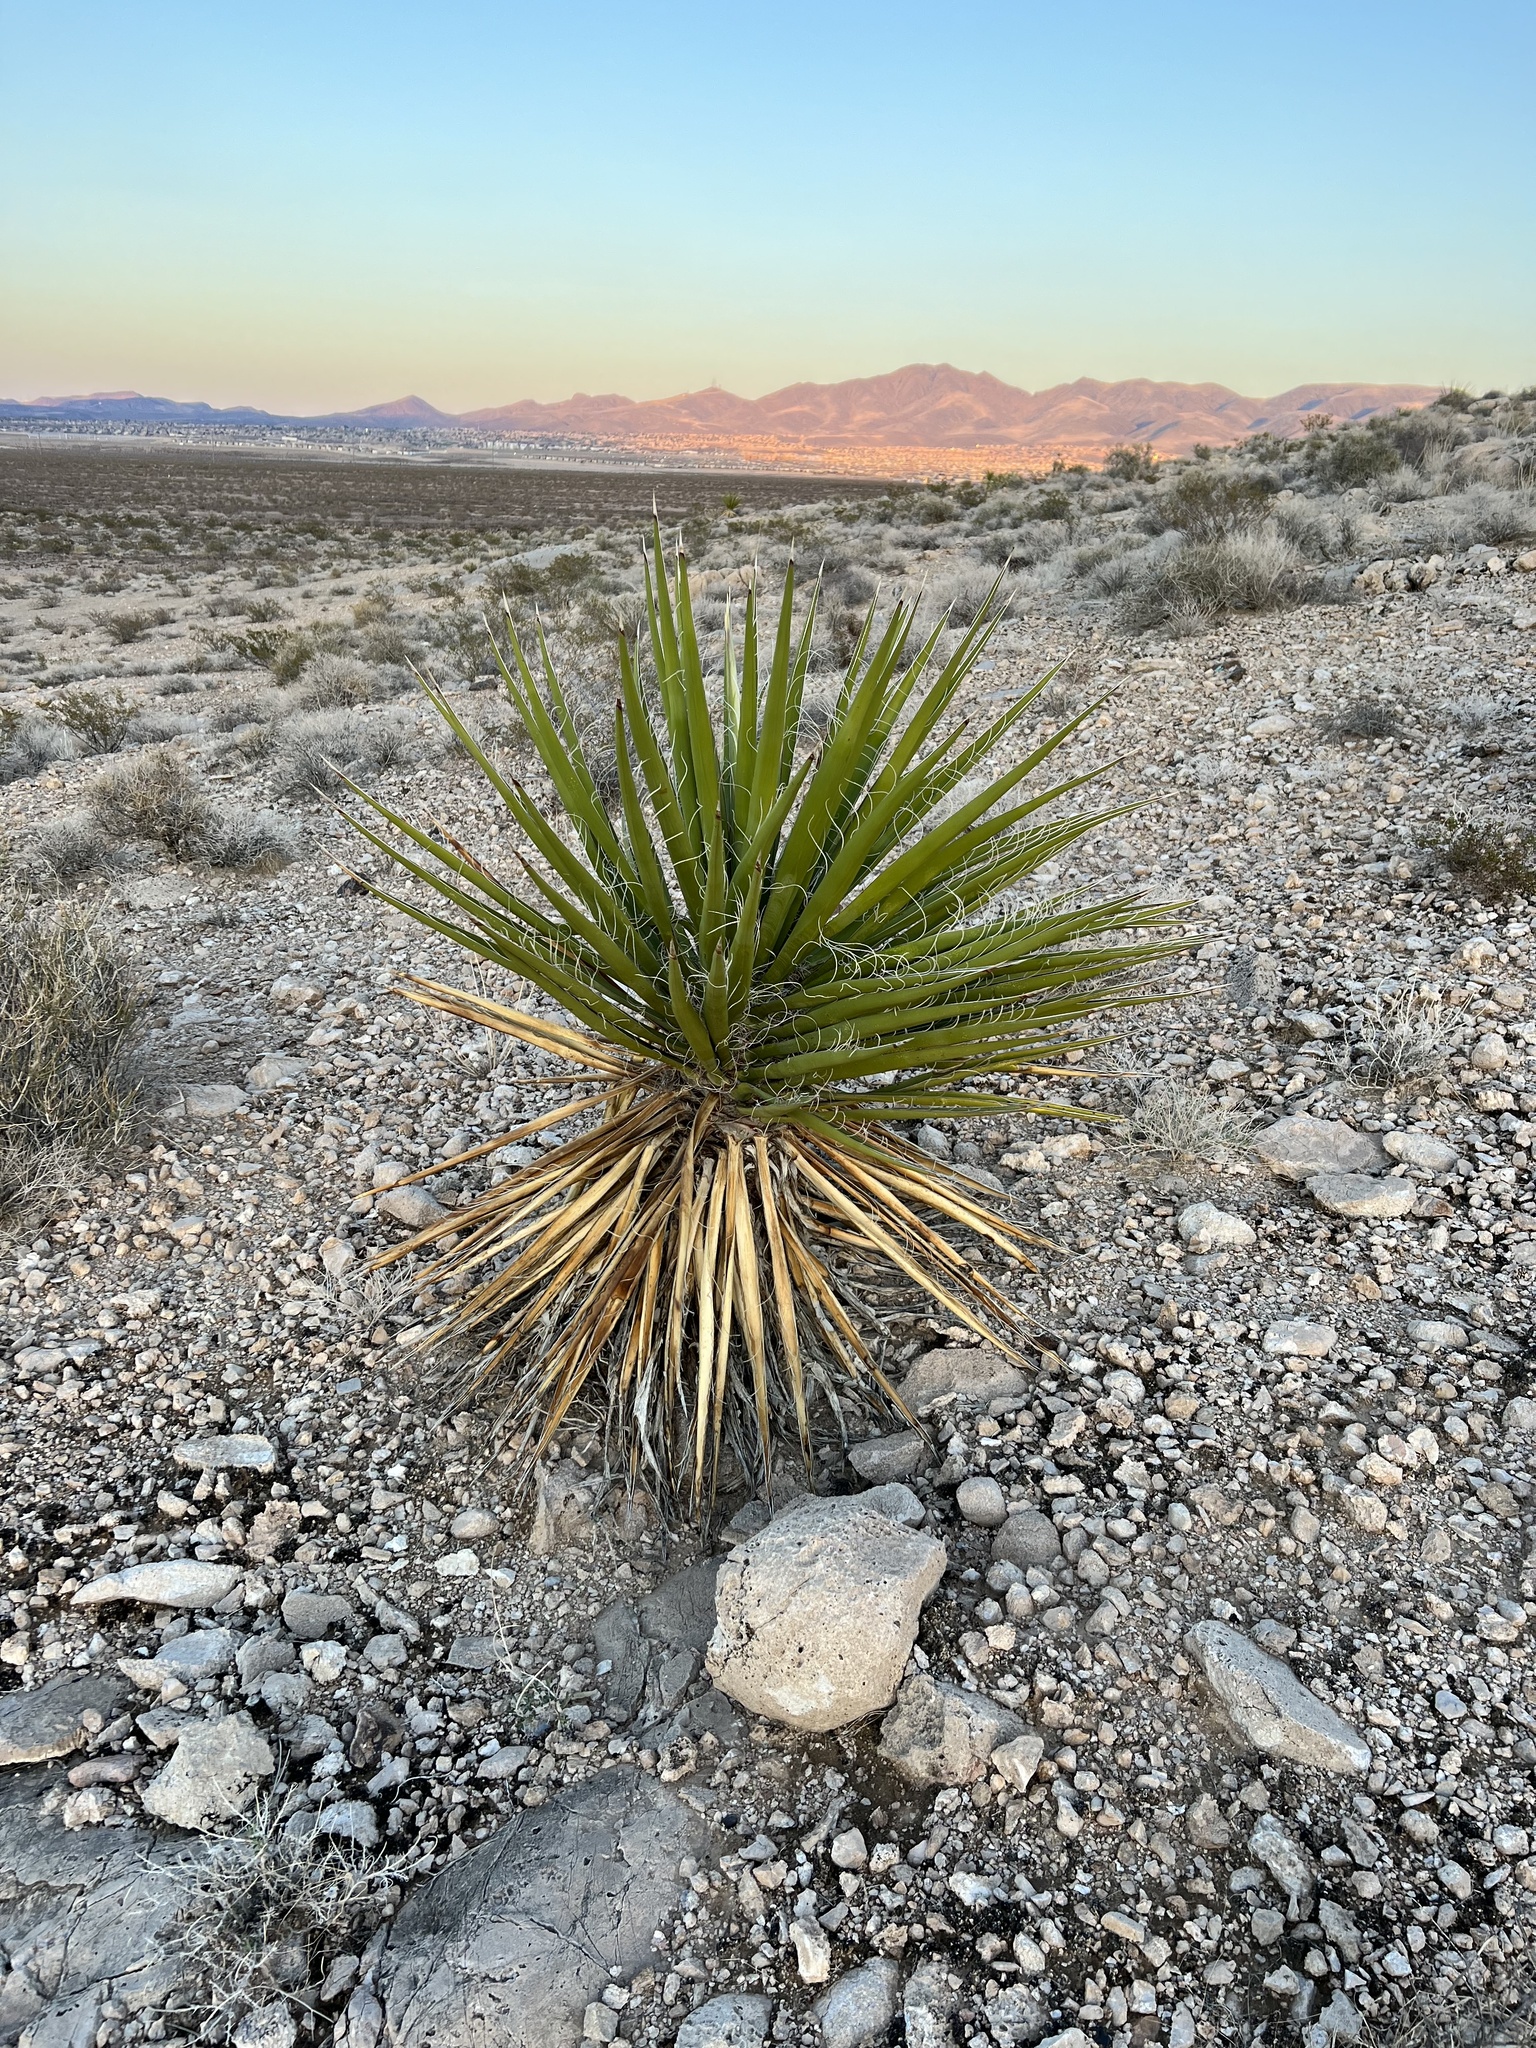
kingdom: Plantae
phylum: Tracheophyta
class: Liliopsida
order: Asparagales
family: Asparagaceae
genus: Yucca
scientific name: Yucca schidigera
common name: Mojave yucca
